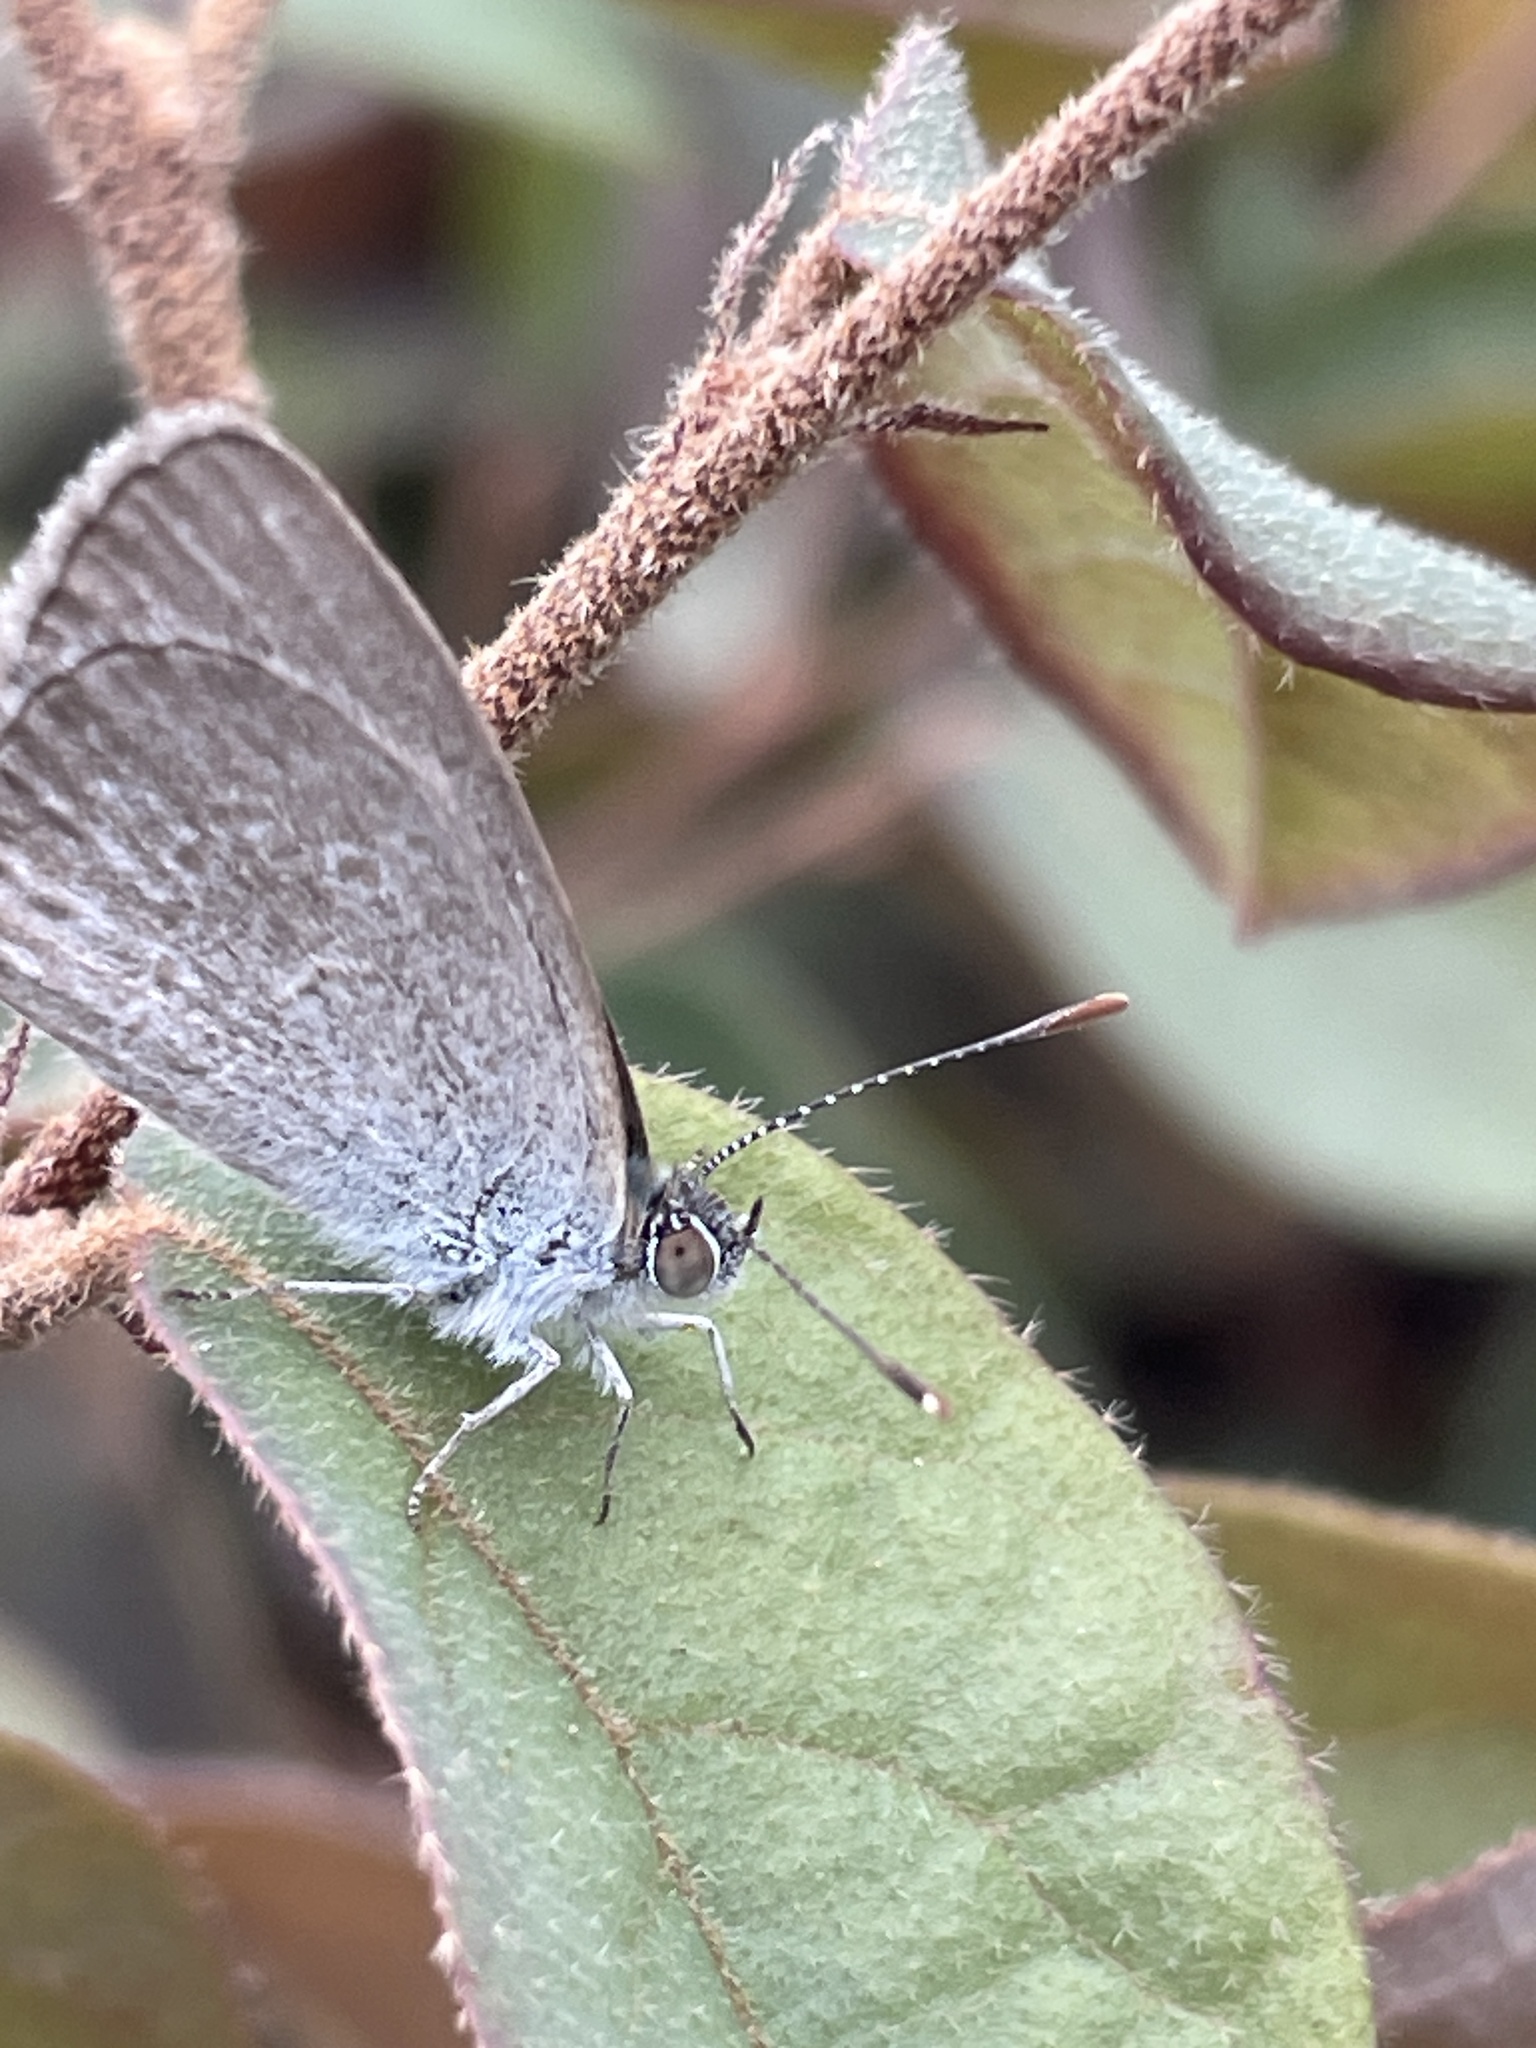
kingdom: Animalia
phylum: Arthropoda
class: Insecta
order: Lepidoptera
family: Lycaenidae
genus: Zizina
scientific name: Zizina otis
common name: Lesser grass blue
